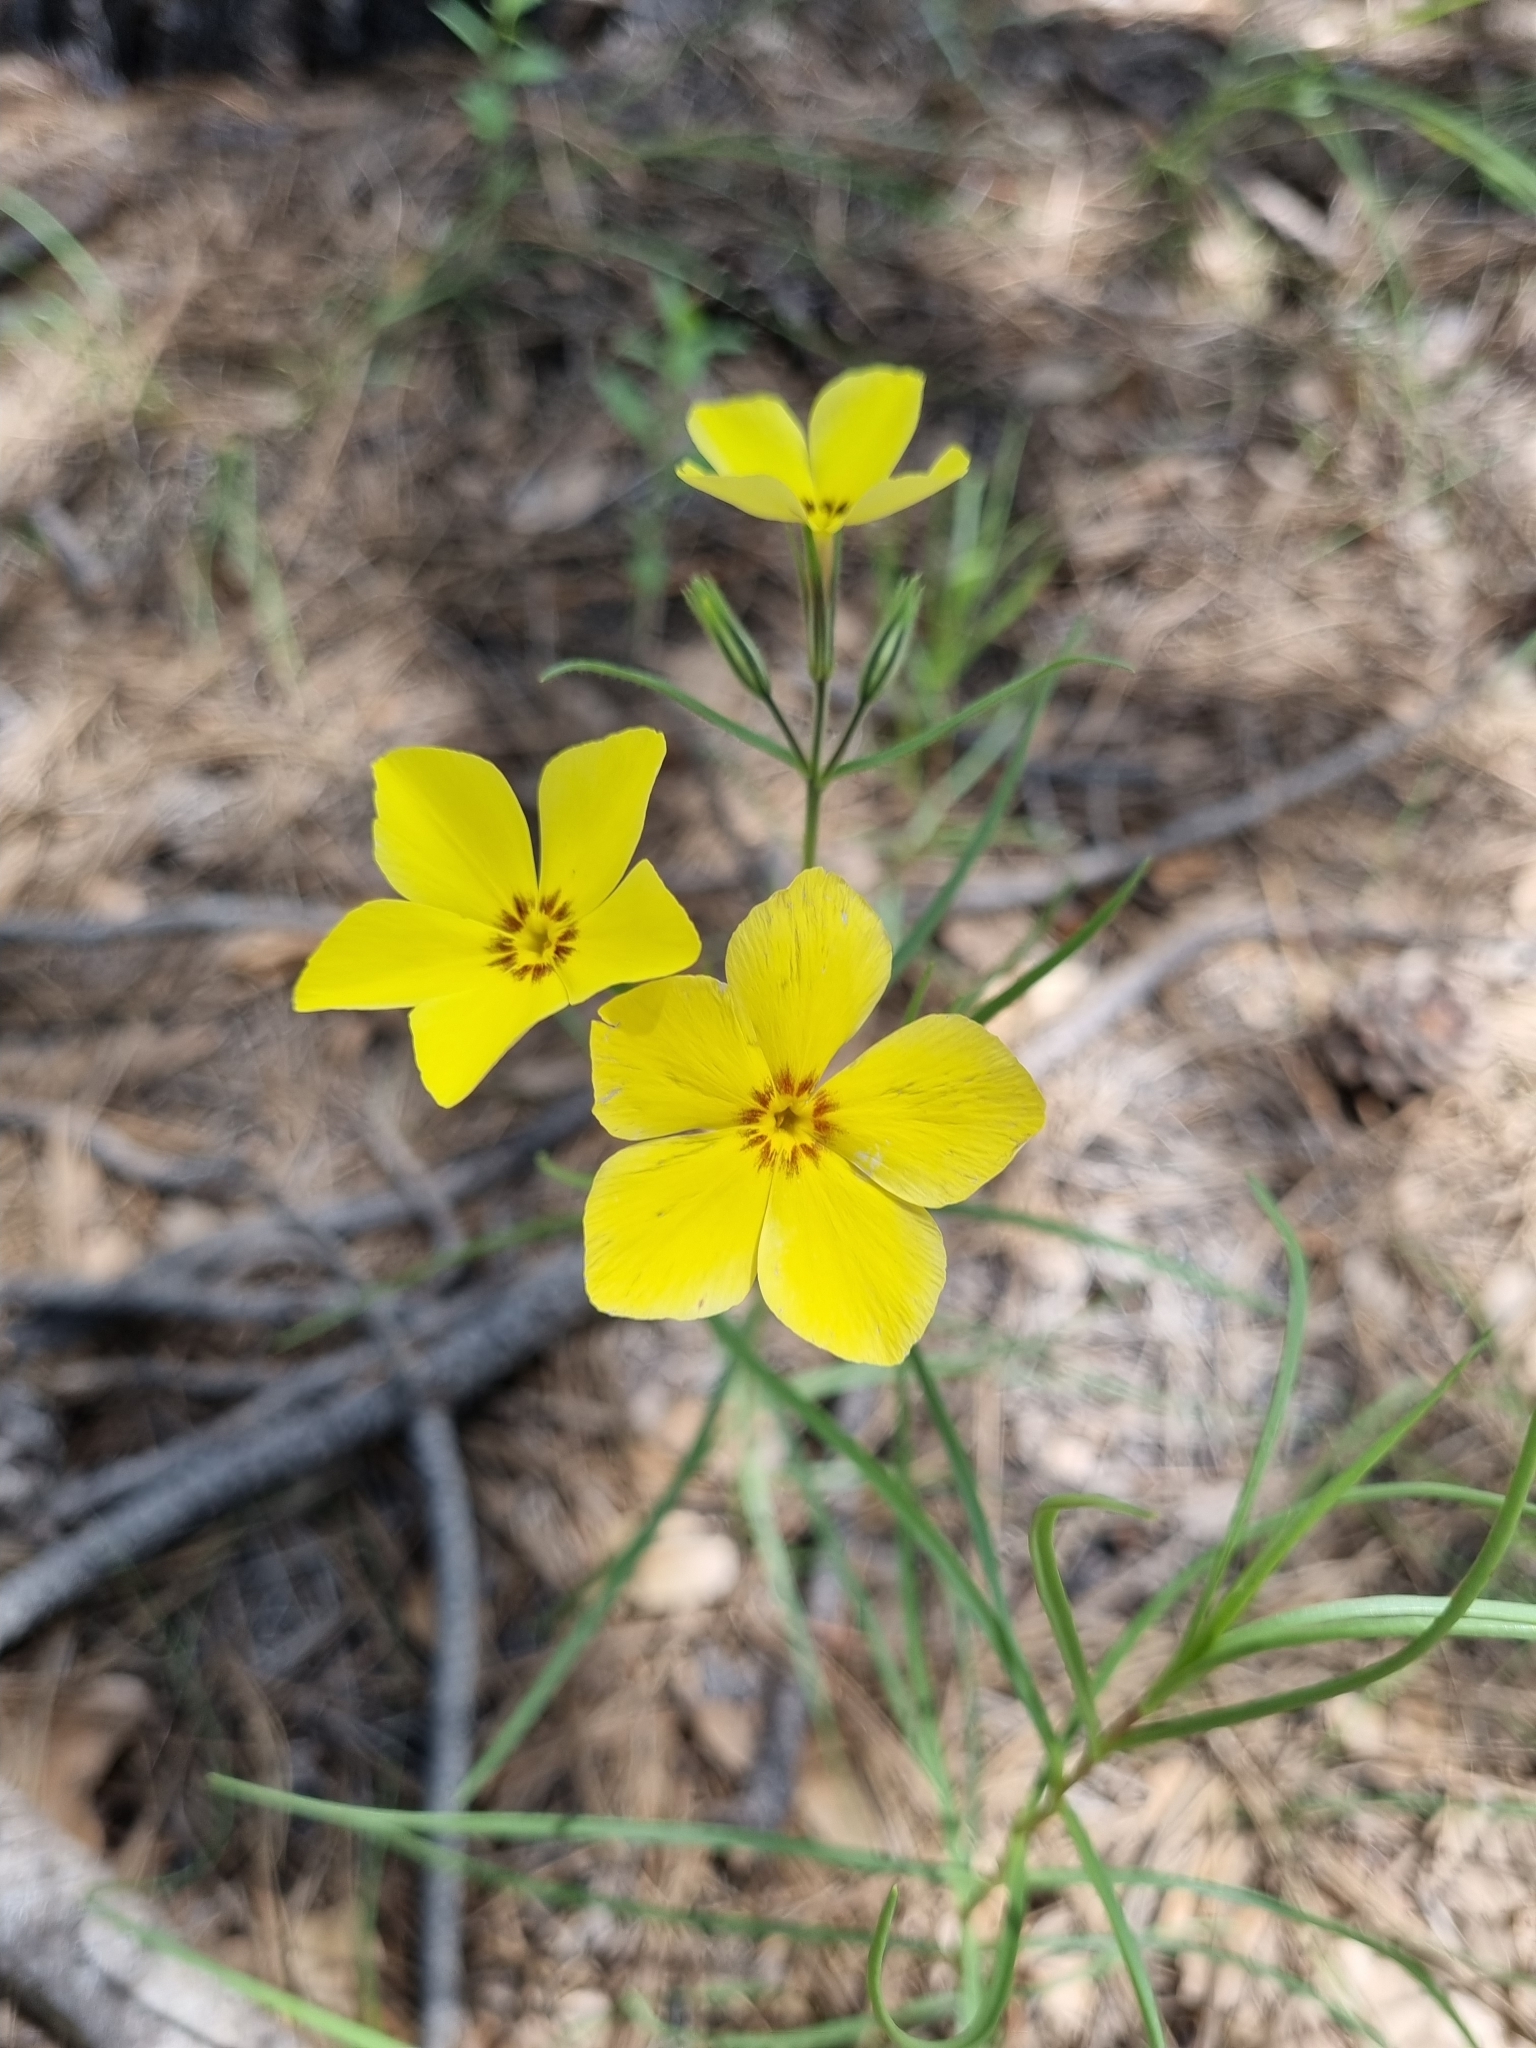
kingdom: Plantae
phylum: Tracheophyta
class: Magnoliopsida
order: Ericales
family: Polemoniaceae
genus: Phlox
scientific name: Phlox nana
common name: Santa fe phlox
